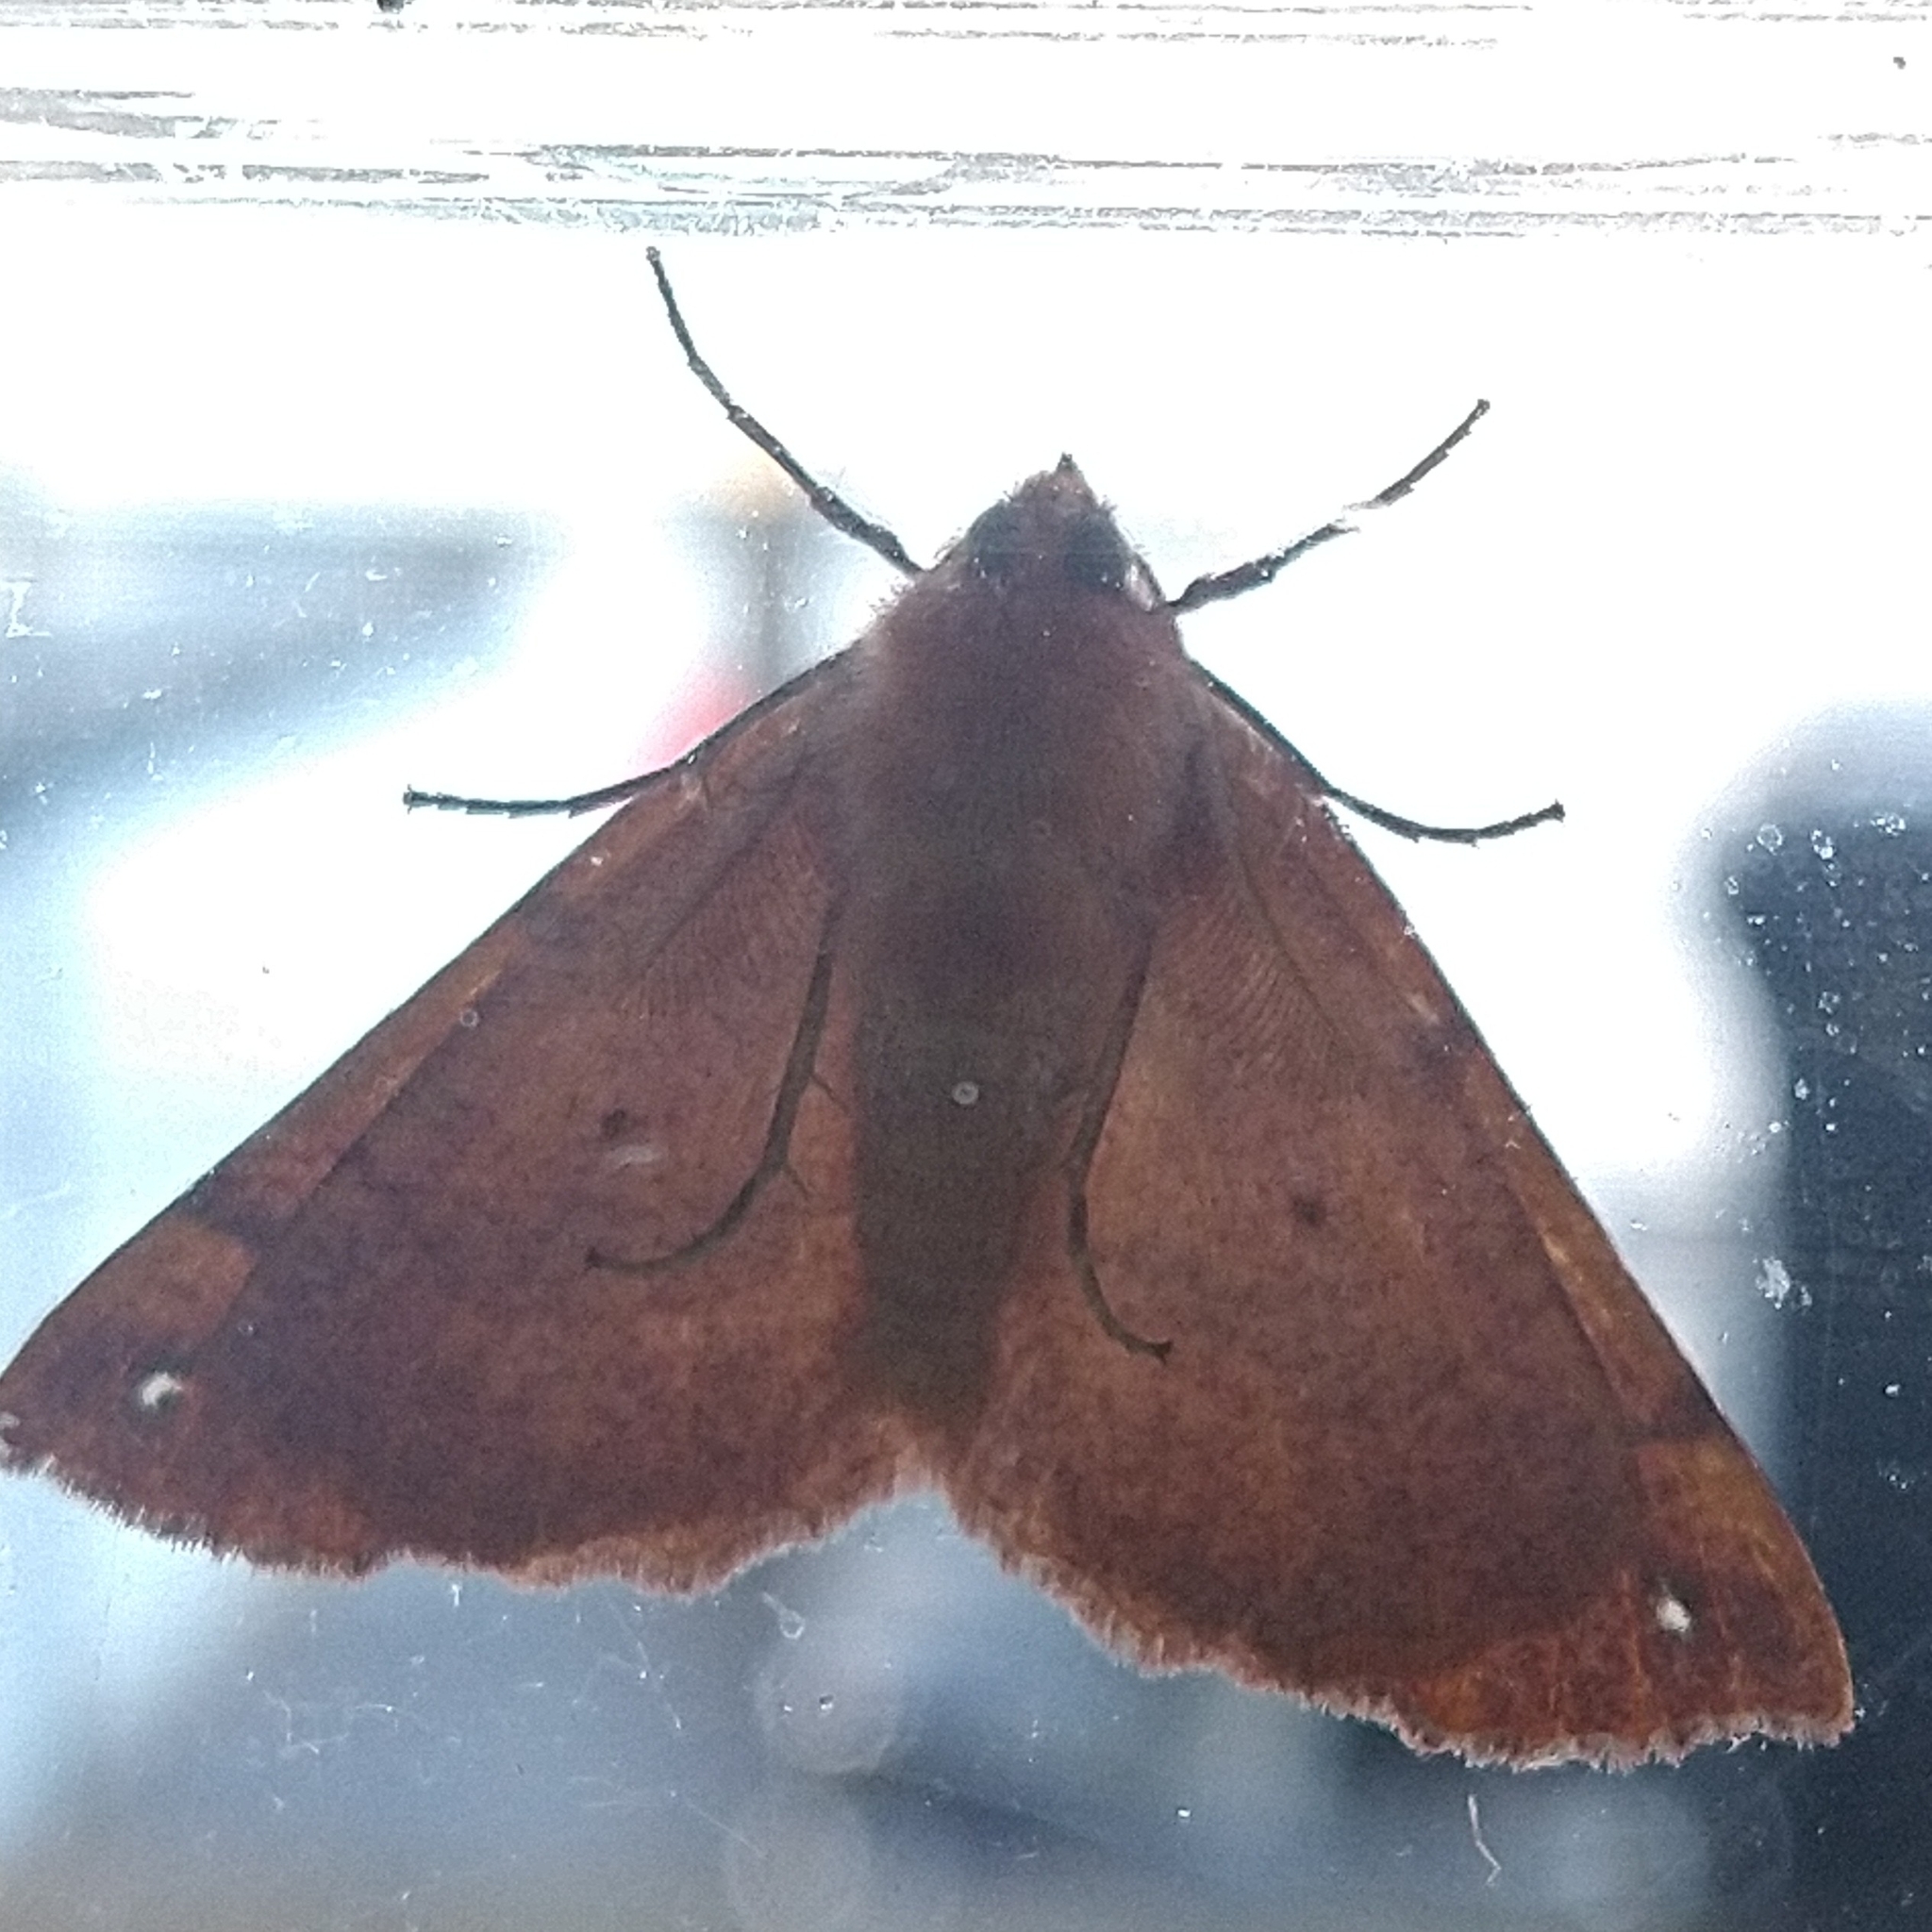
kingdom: Animalia
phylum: Arthropoda
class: Insecta
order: Lepidoptera
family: Geometridae
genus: Colotois
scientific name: Colotois pennaria
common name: Feathered thorn
